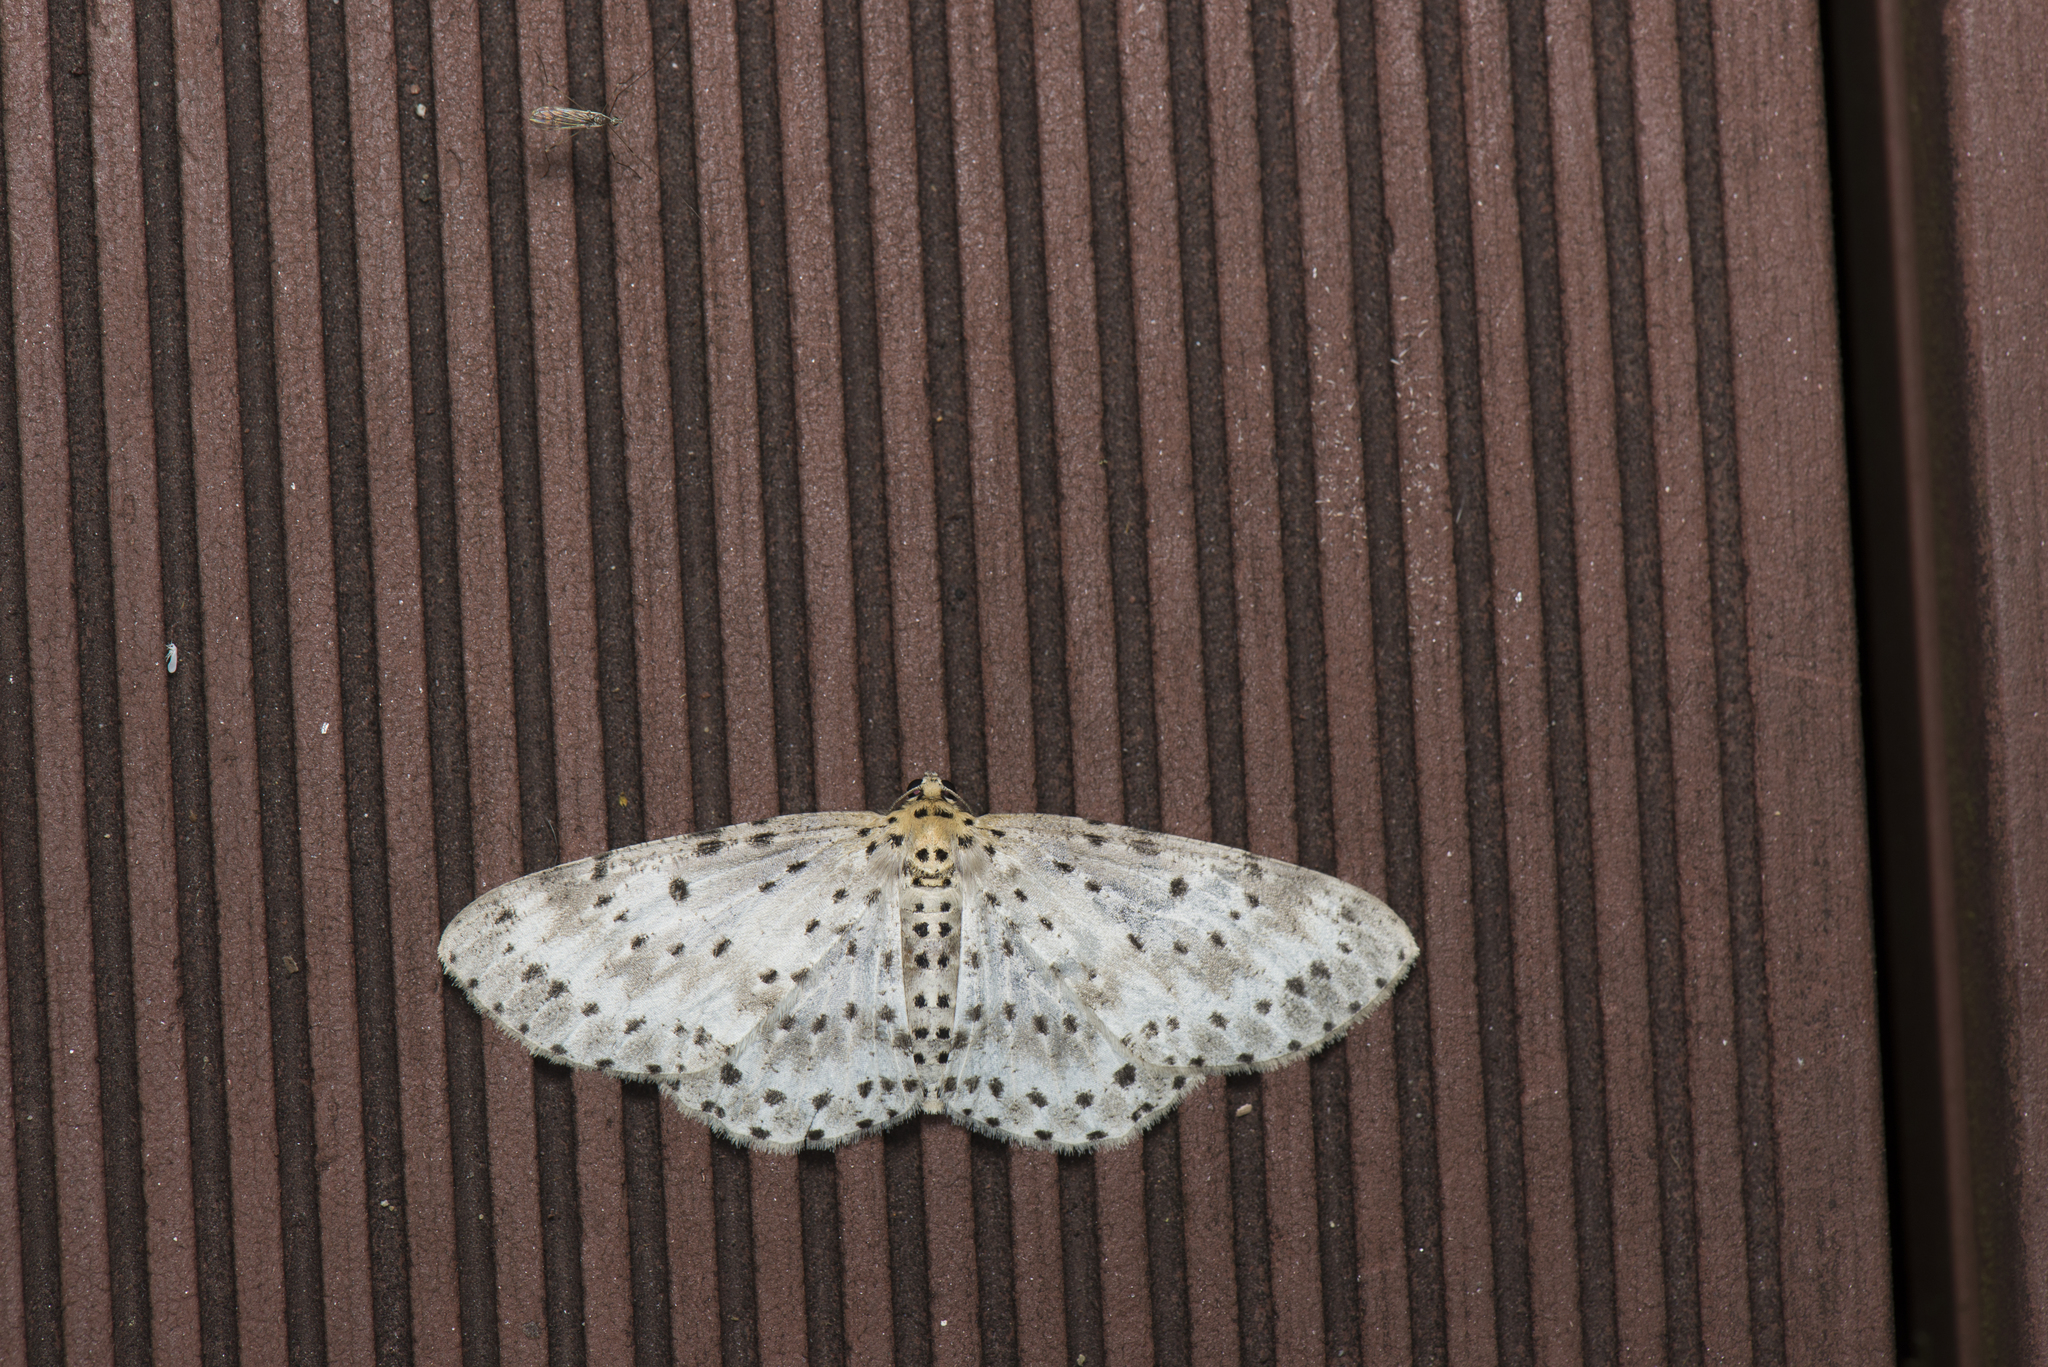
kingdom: Animalia
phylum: Arthropoda
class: Insecta
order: Lepidoptera
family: Geometridae
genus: Percnia
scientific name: Percnia suffusa
